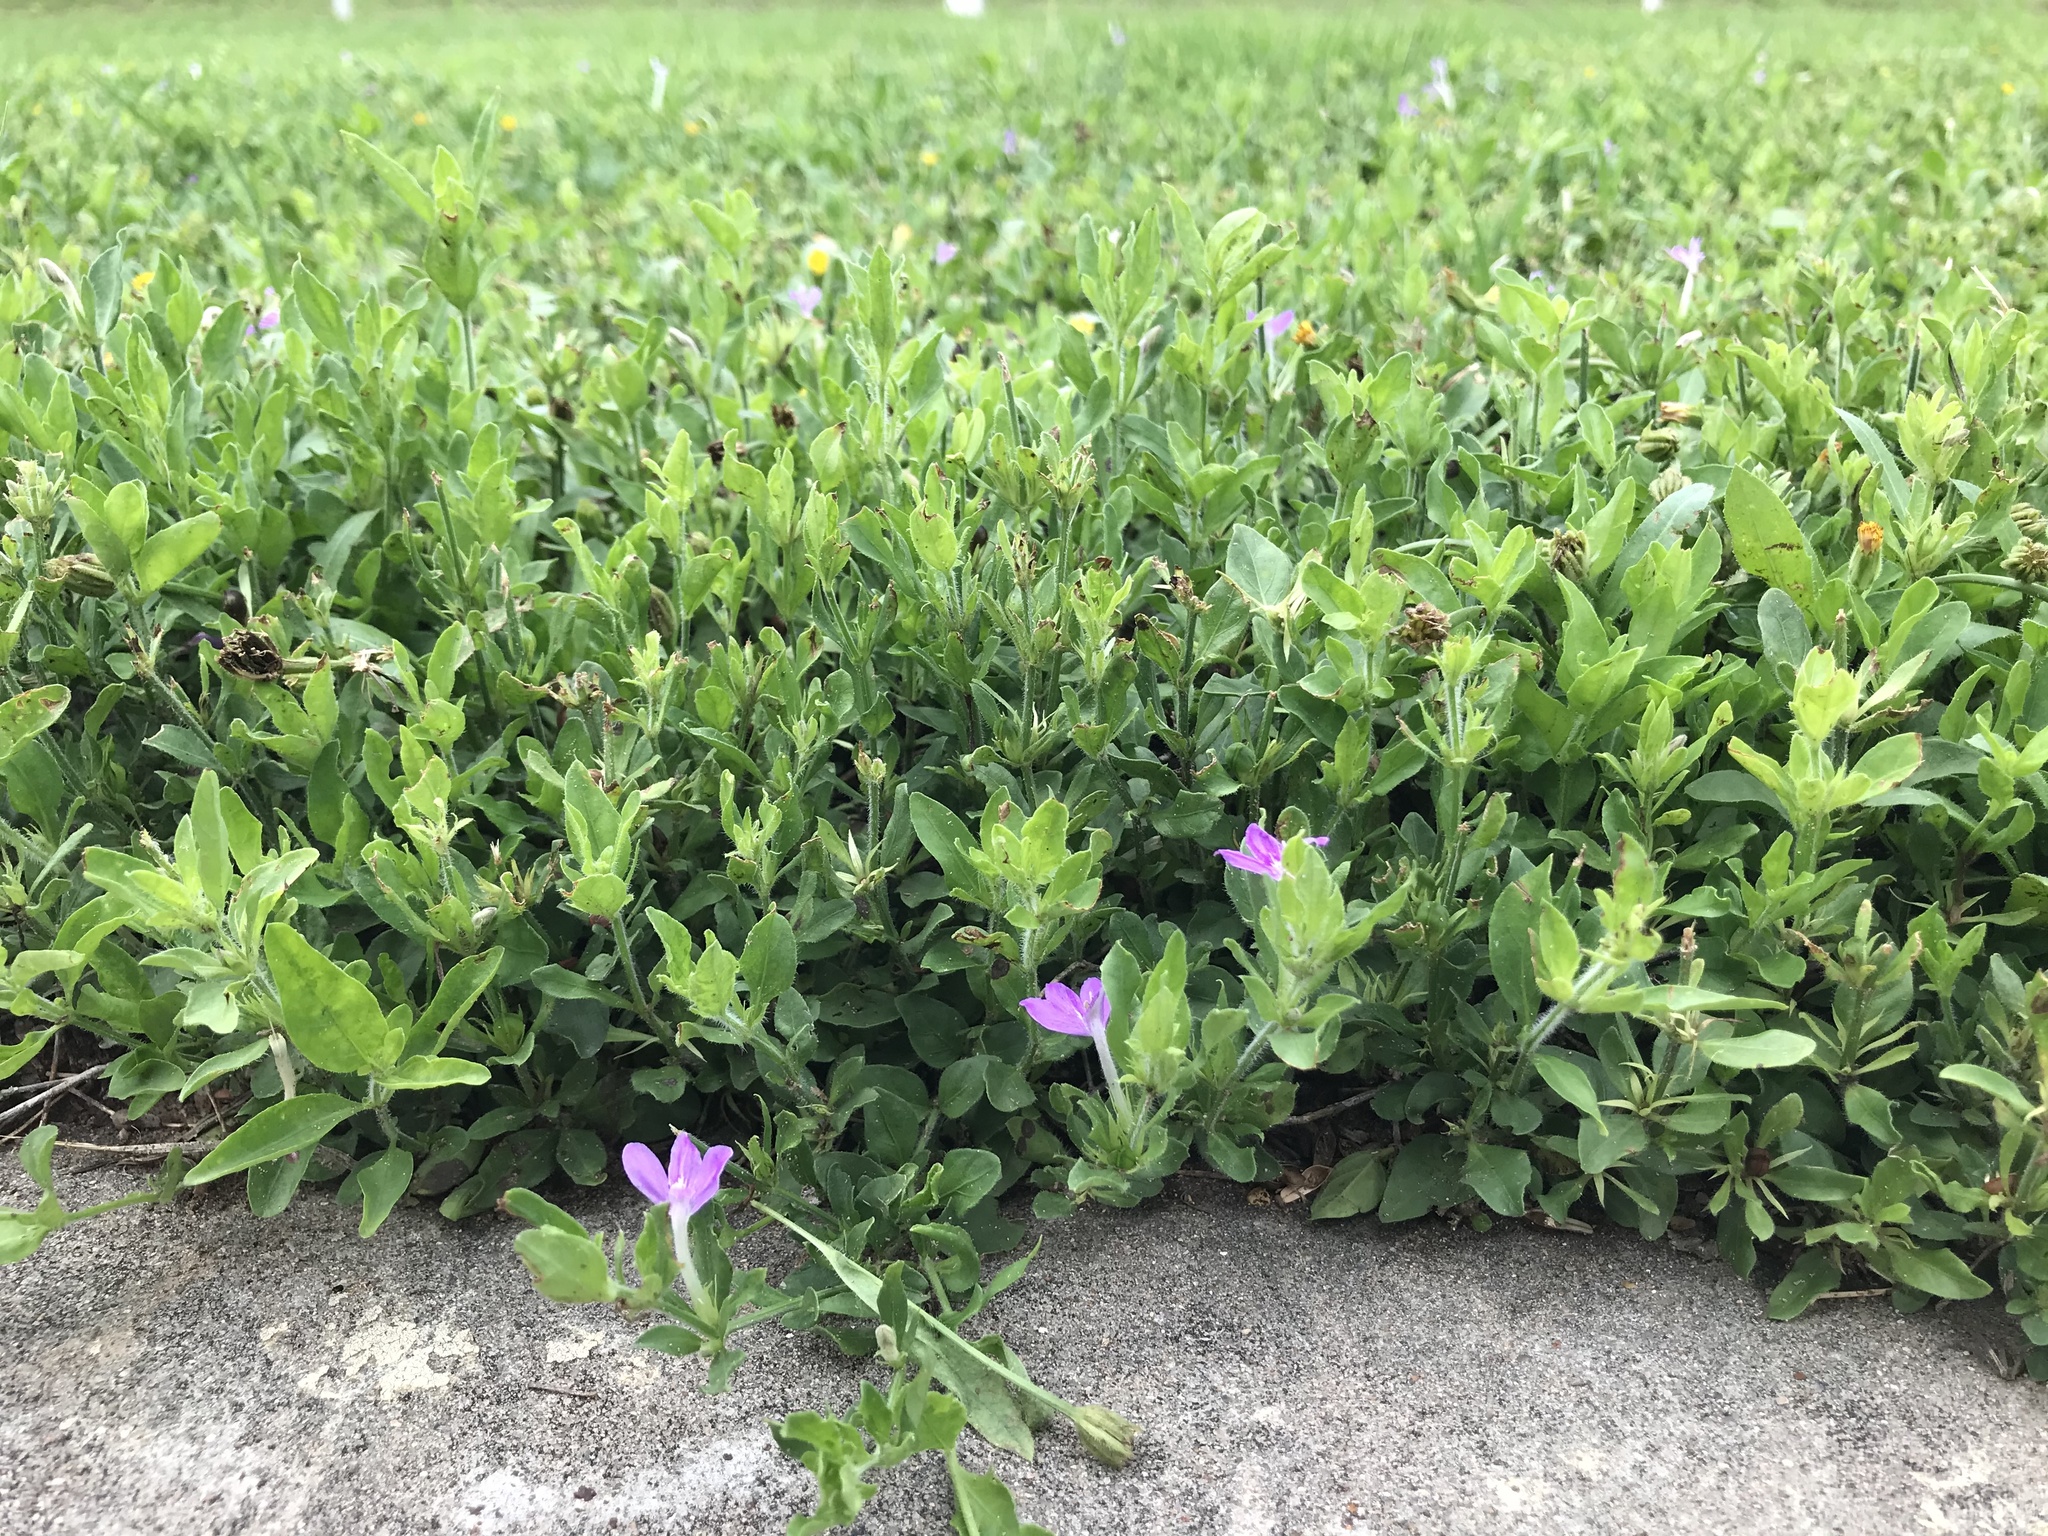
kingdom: Plantae
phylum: Tracheophyta
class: Magnoliopsida
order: Lamiales
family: Acanthaceae
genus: Justicia
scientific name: Justicia pilosella
